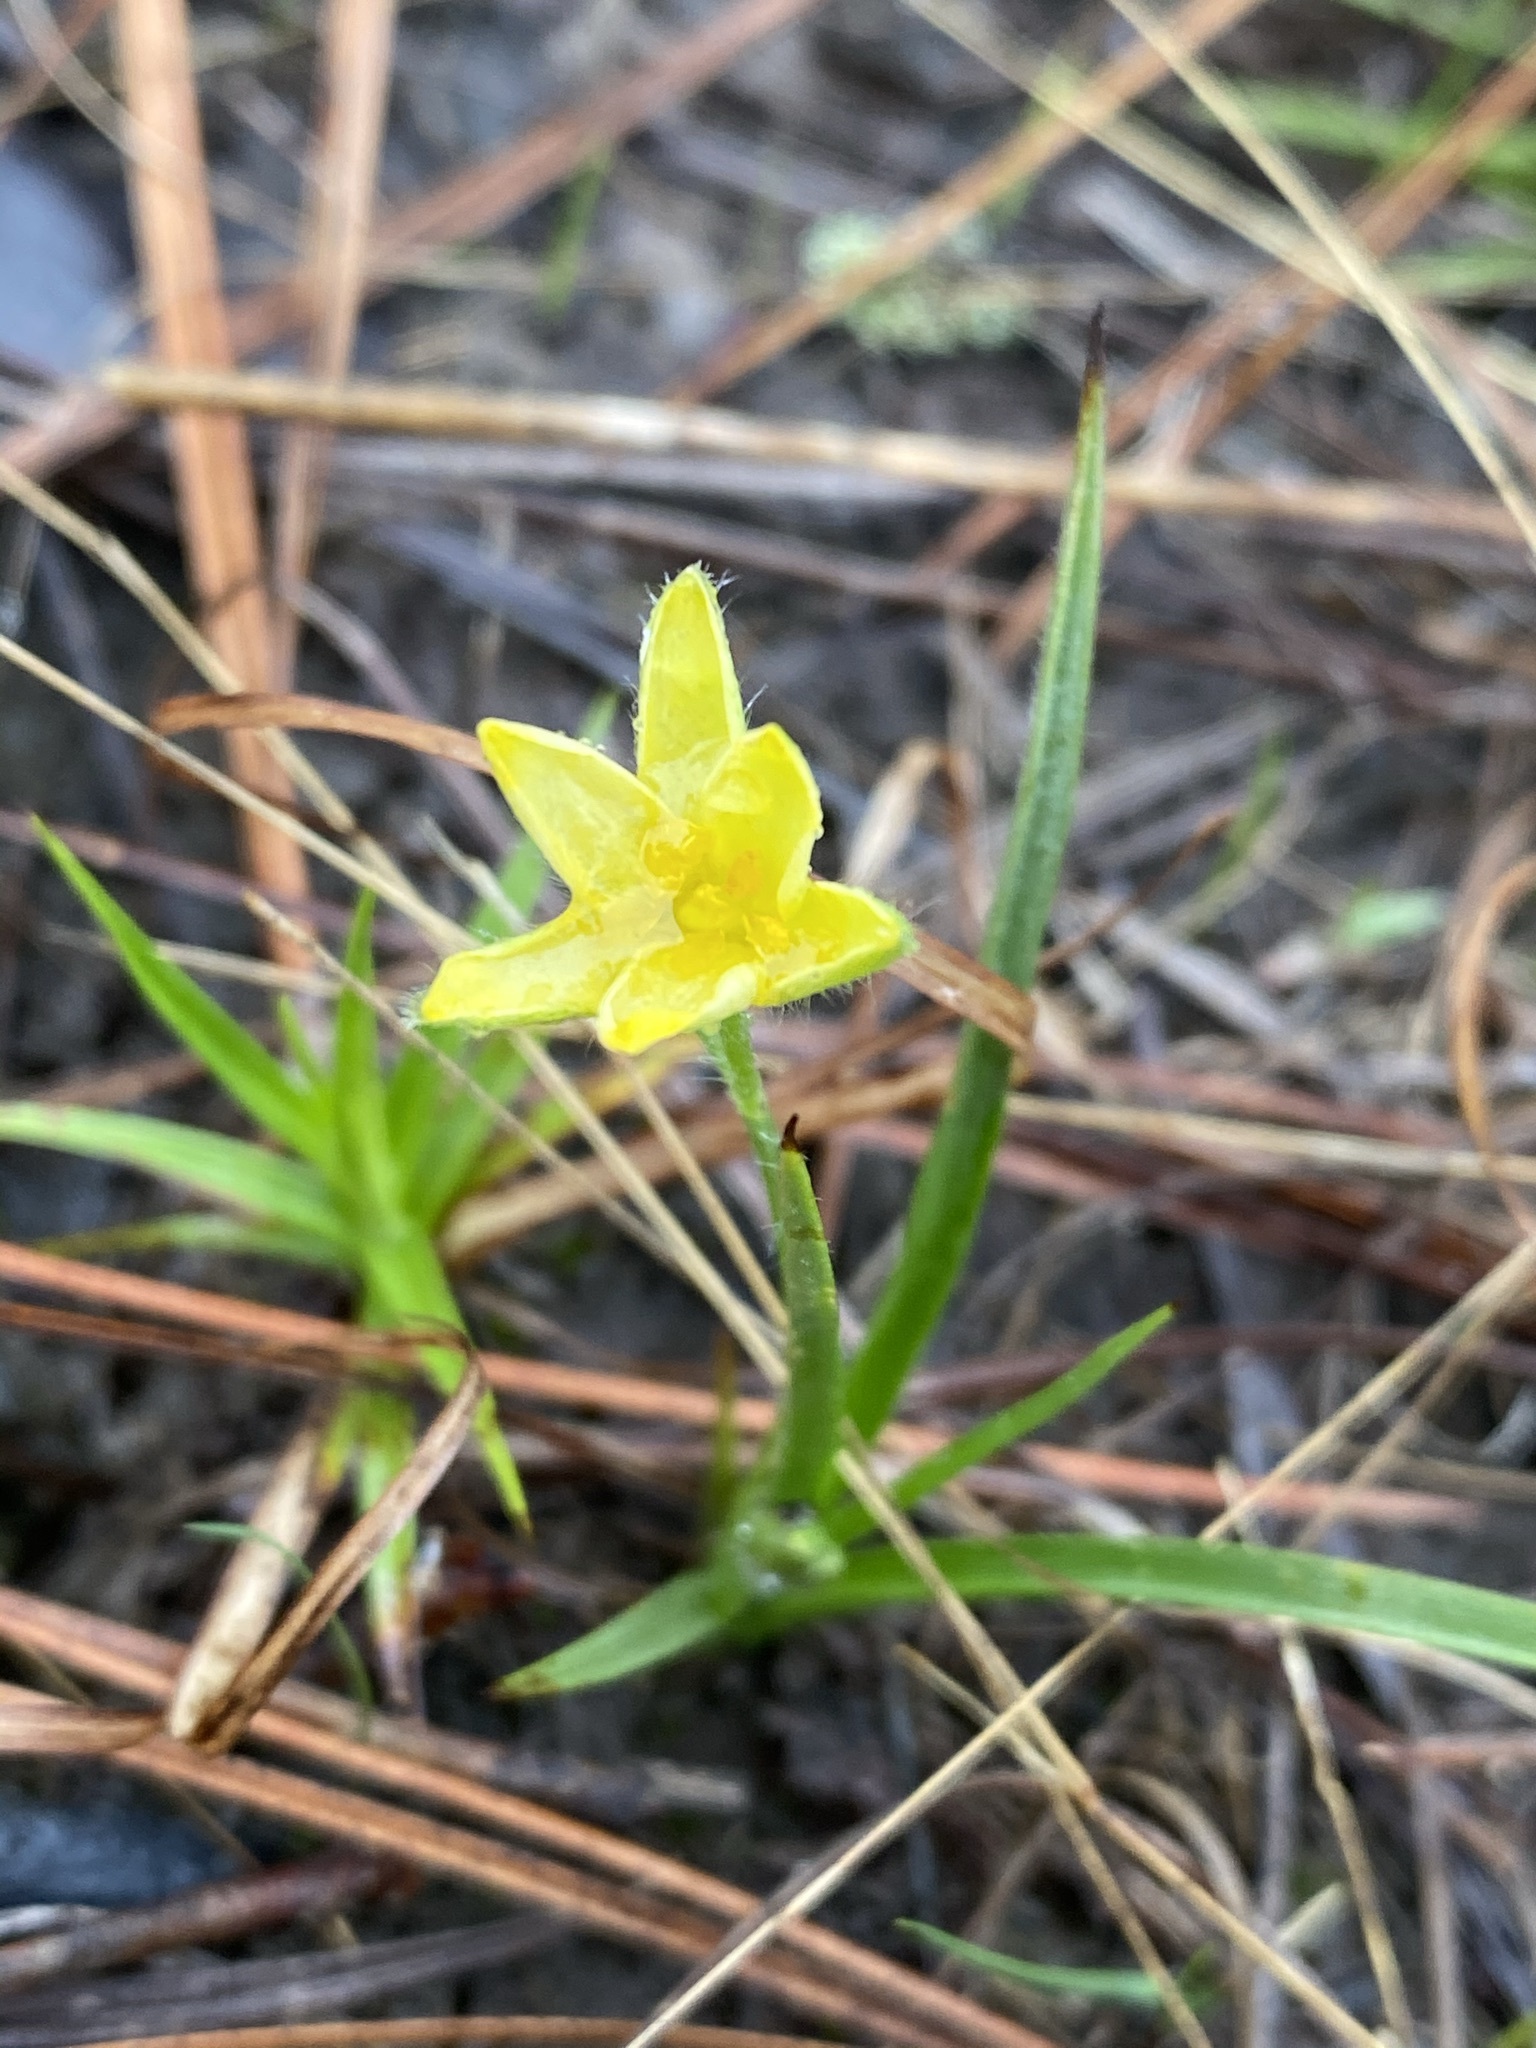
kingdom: Plantae
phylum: Tracheophyta
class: Liliopsida
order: Asparagales
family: Hypoxidaceae
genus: Hypoxis
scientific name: Hypoxis hirsuta
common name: Common goldstar
